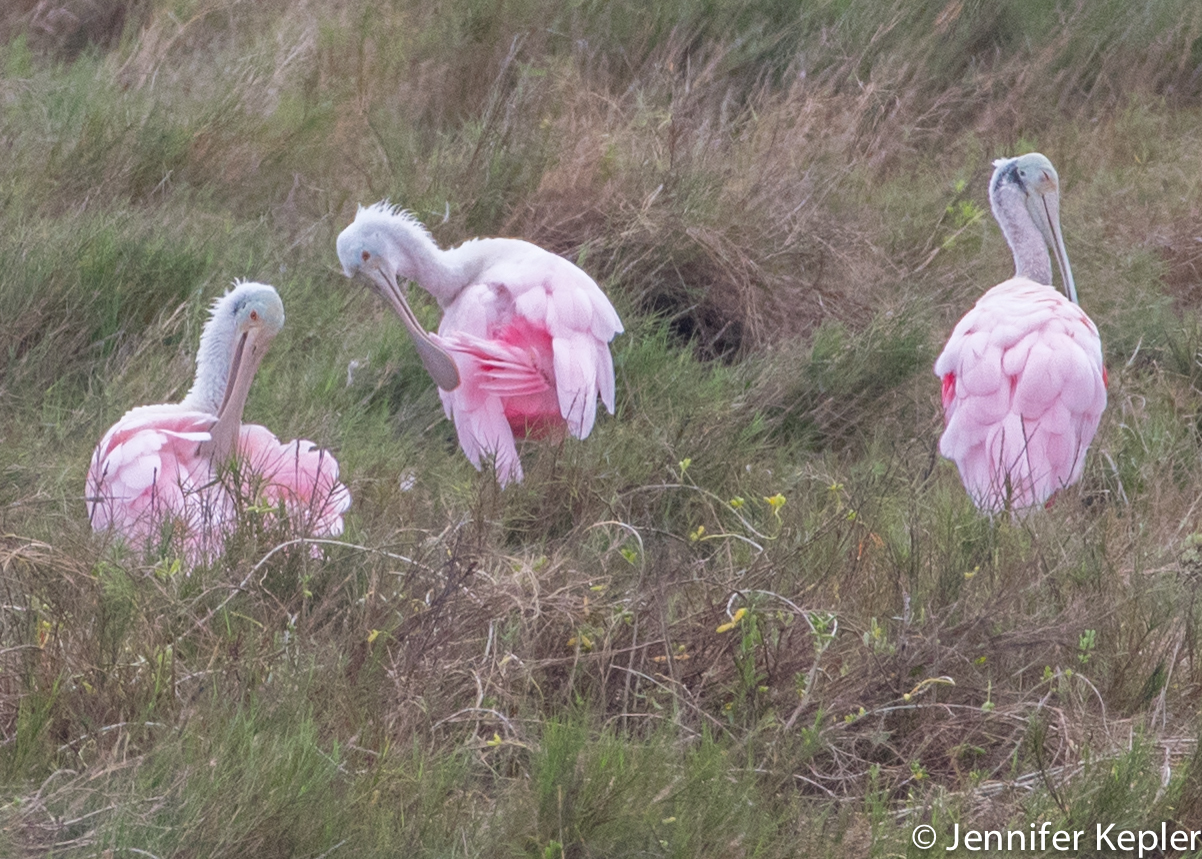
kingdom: Animalia
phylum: Chordata
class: Aves
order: Pelecaniformes
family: Threskiornithidae
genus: Platalea
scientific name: Platalea ajaja
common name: Roseate spoonbill
